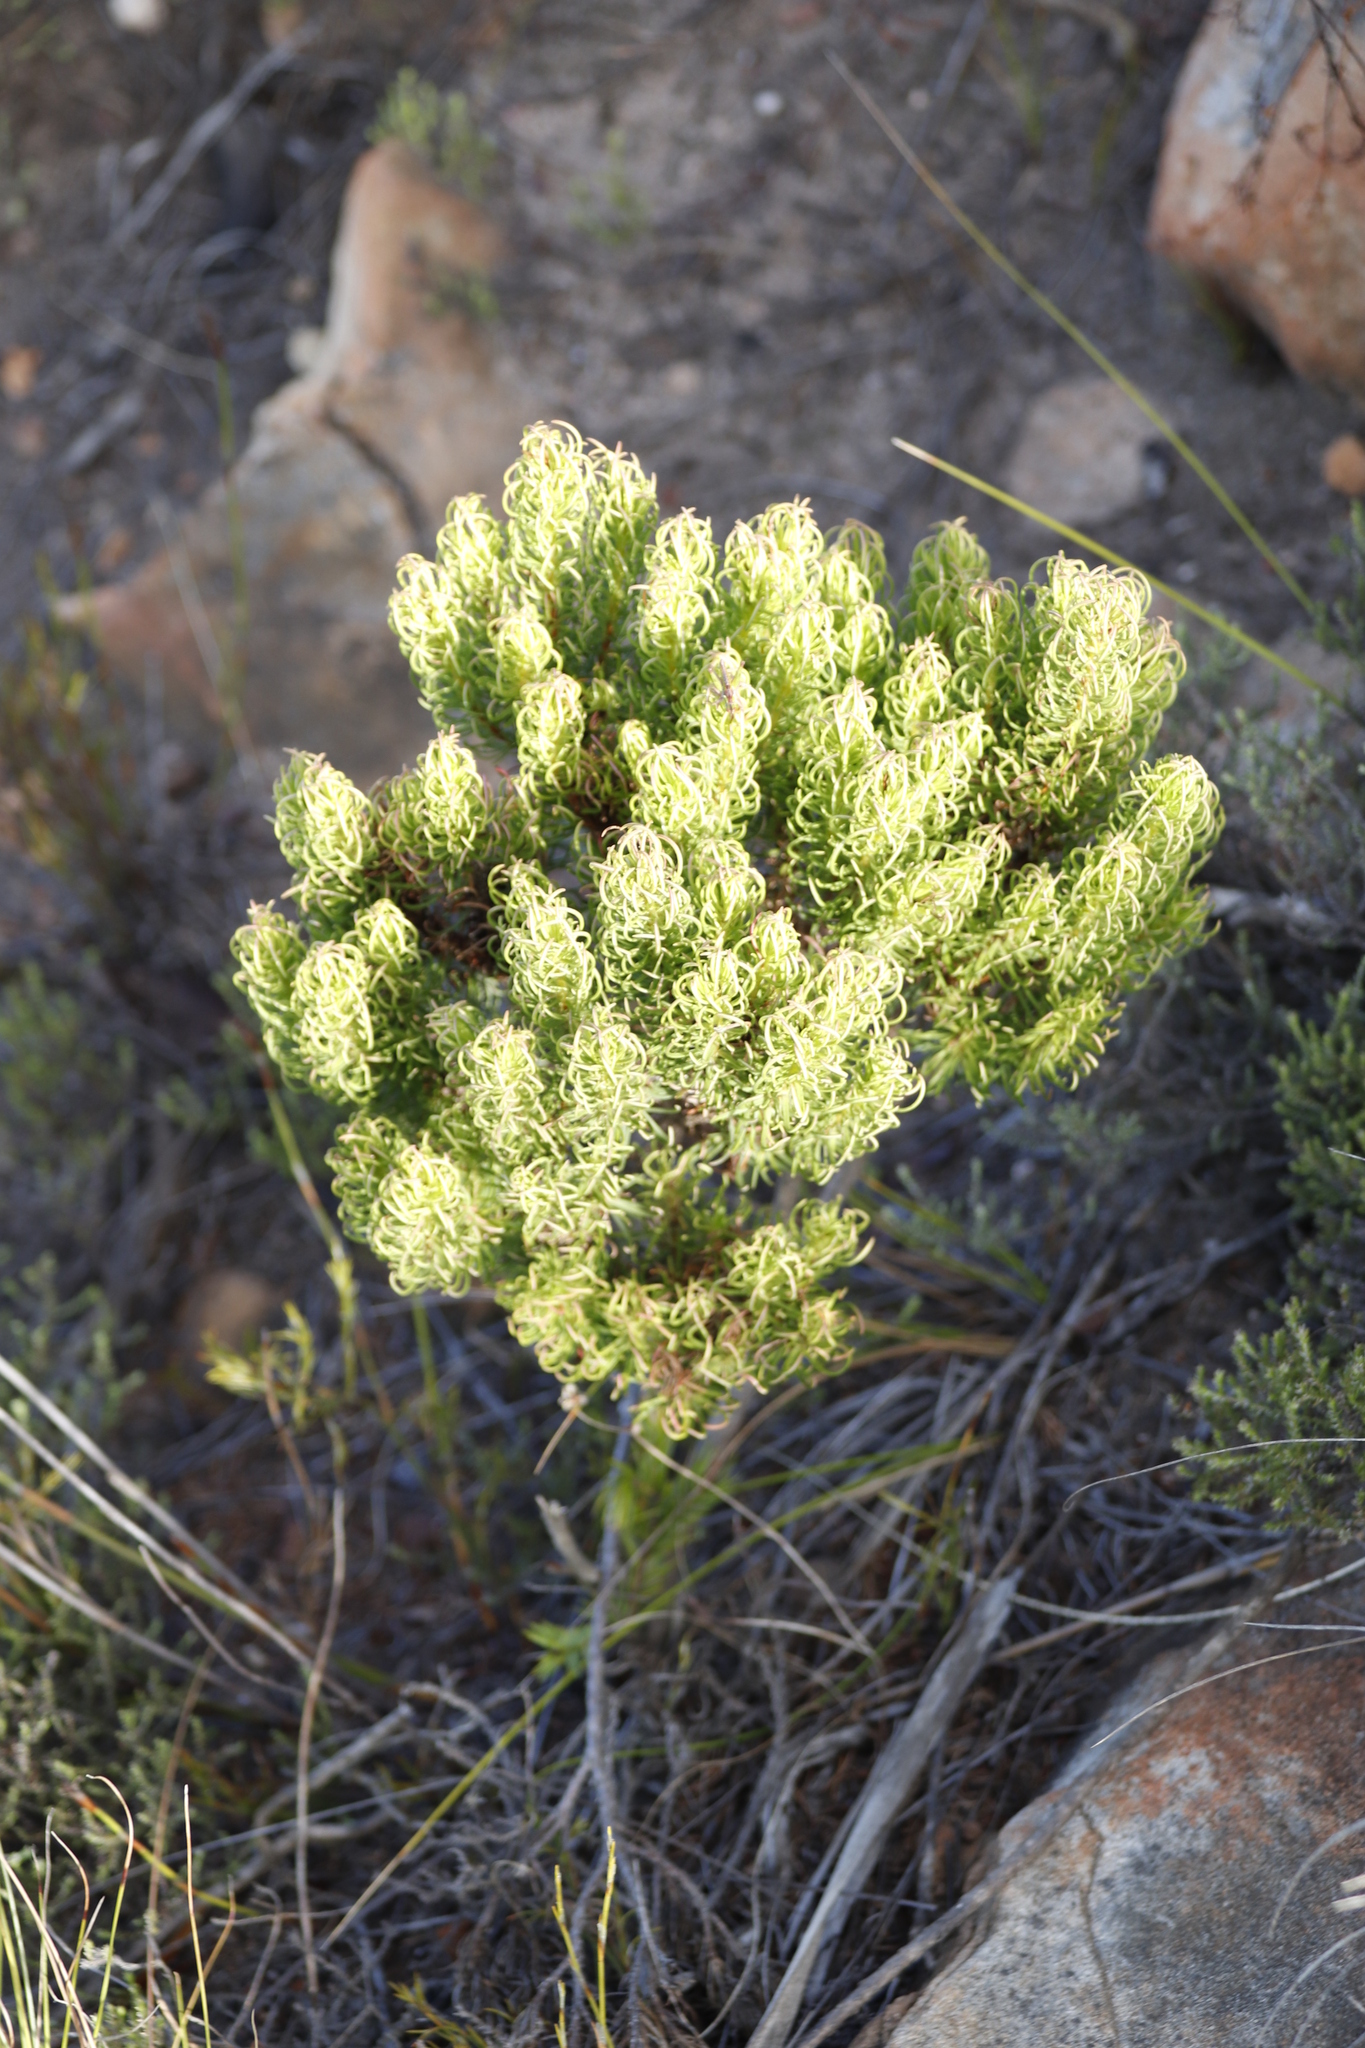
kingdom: Plantae
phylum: Tracheophyta
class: Magnoliopsida
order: Ericales
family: Ericaceae
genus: Erica
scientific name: Erica plukenetii
